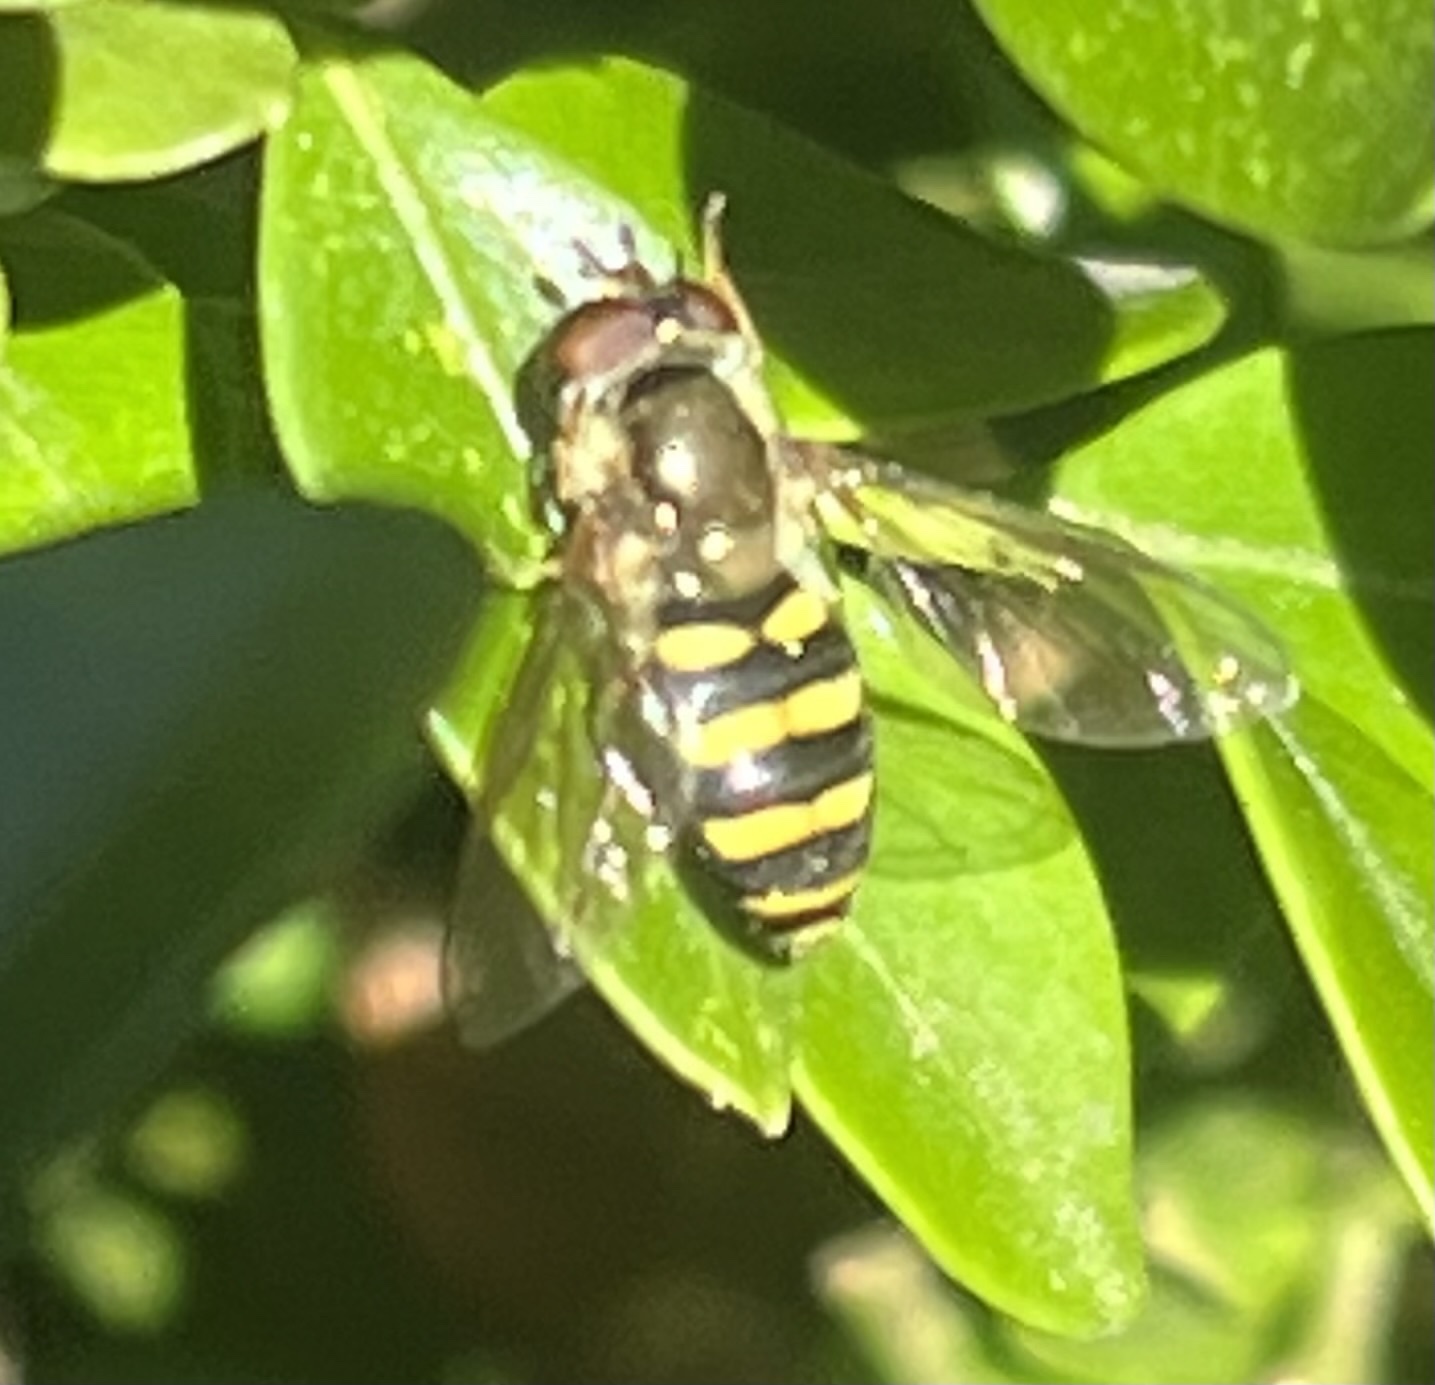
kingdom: Animalia
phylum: Arthropoda
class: Insecta
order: Diptera
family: Syrphidae
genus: Eupeodes
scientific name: Eupeodes
